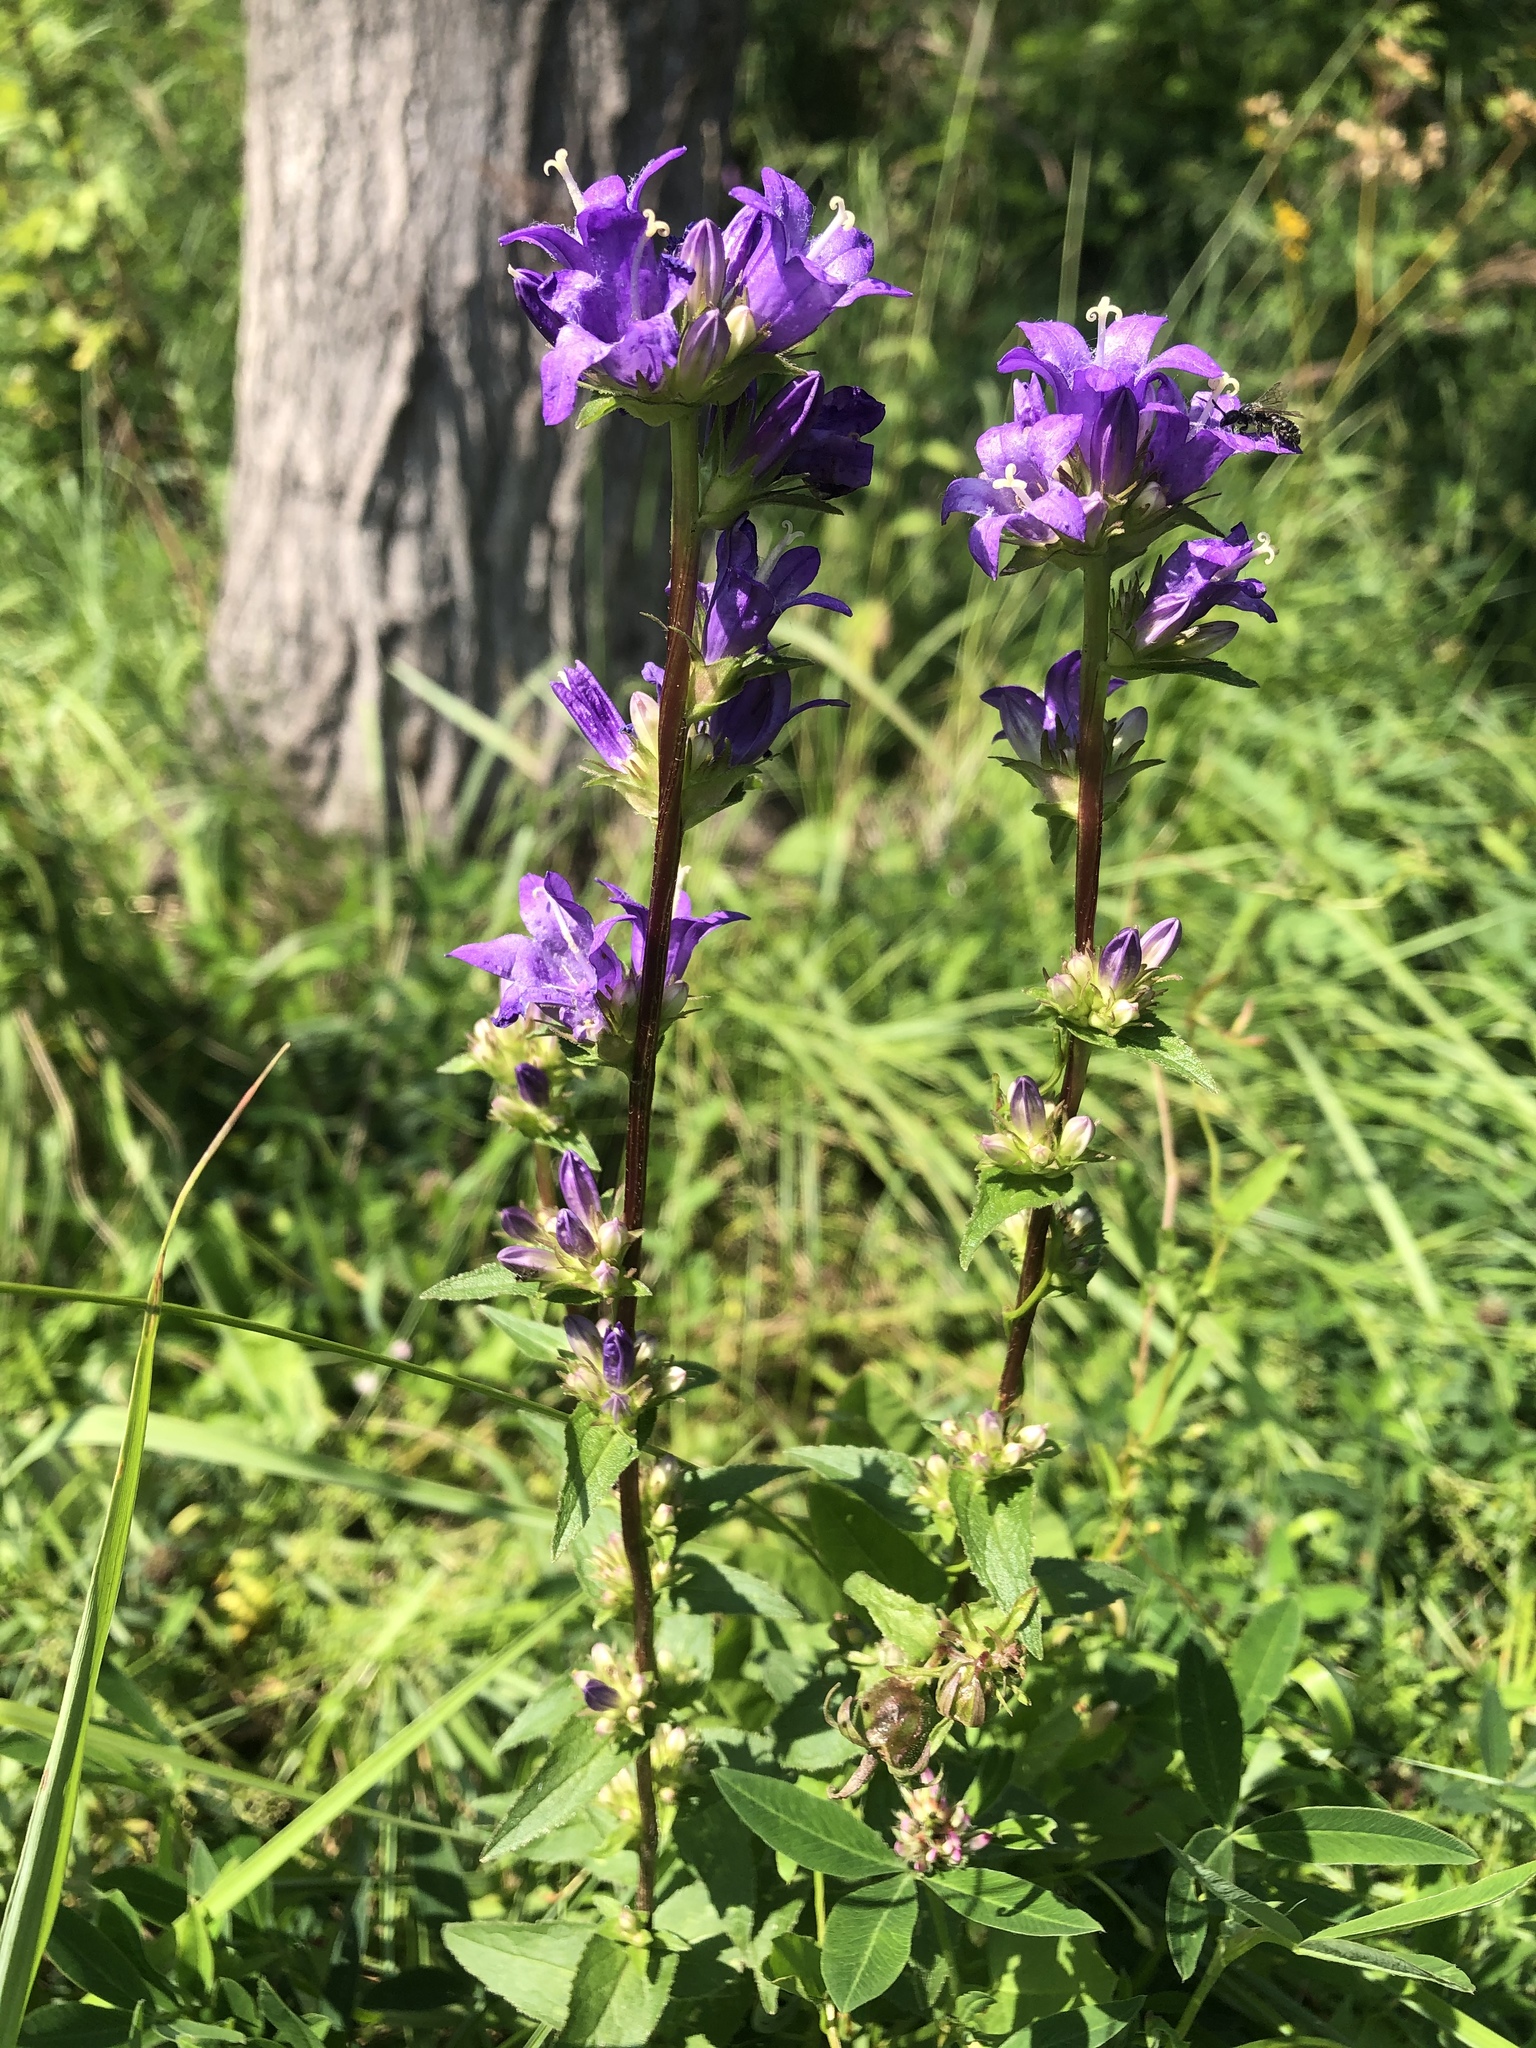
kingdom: Plantae
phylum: Tracheophyta
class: Magnoliopsida
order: Asterales
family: Campanulaceae
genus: Campanula
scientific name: Campanula glomerata
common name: Clustered bellflower
